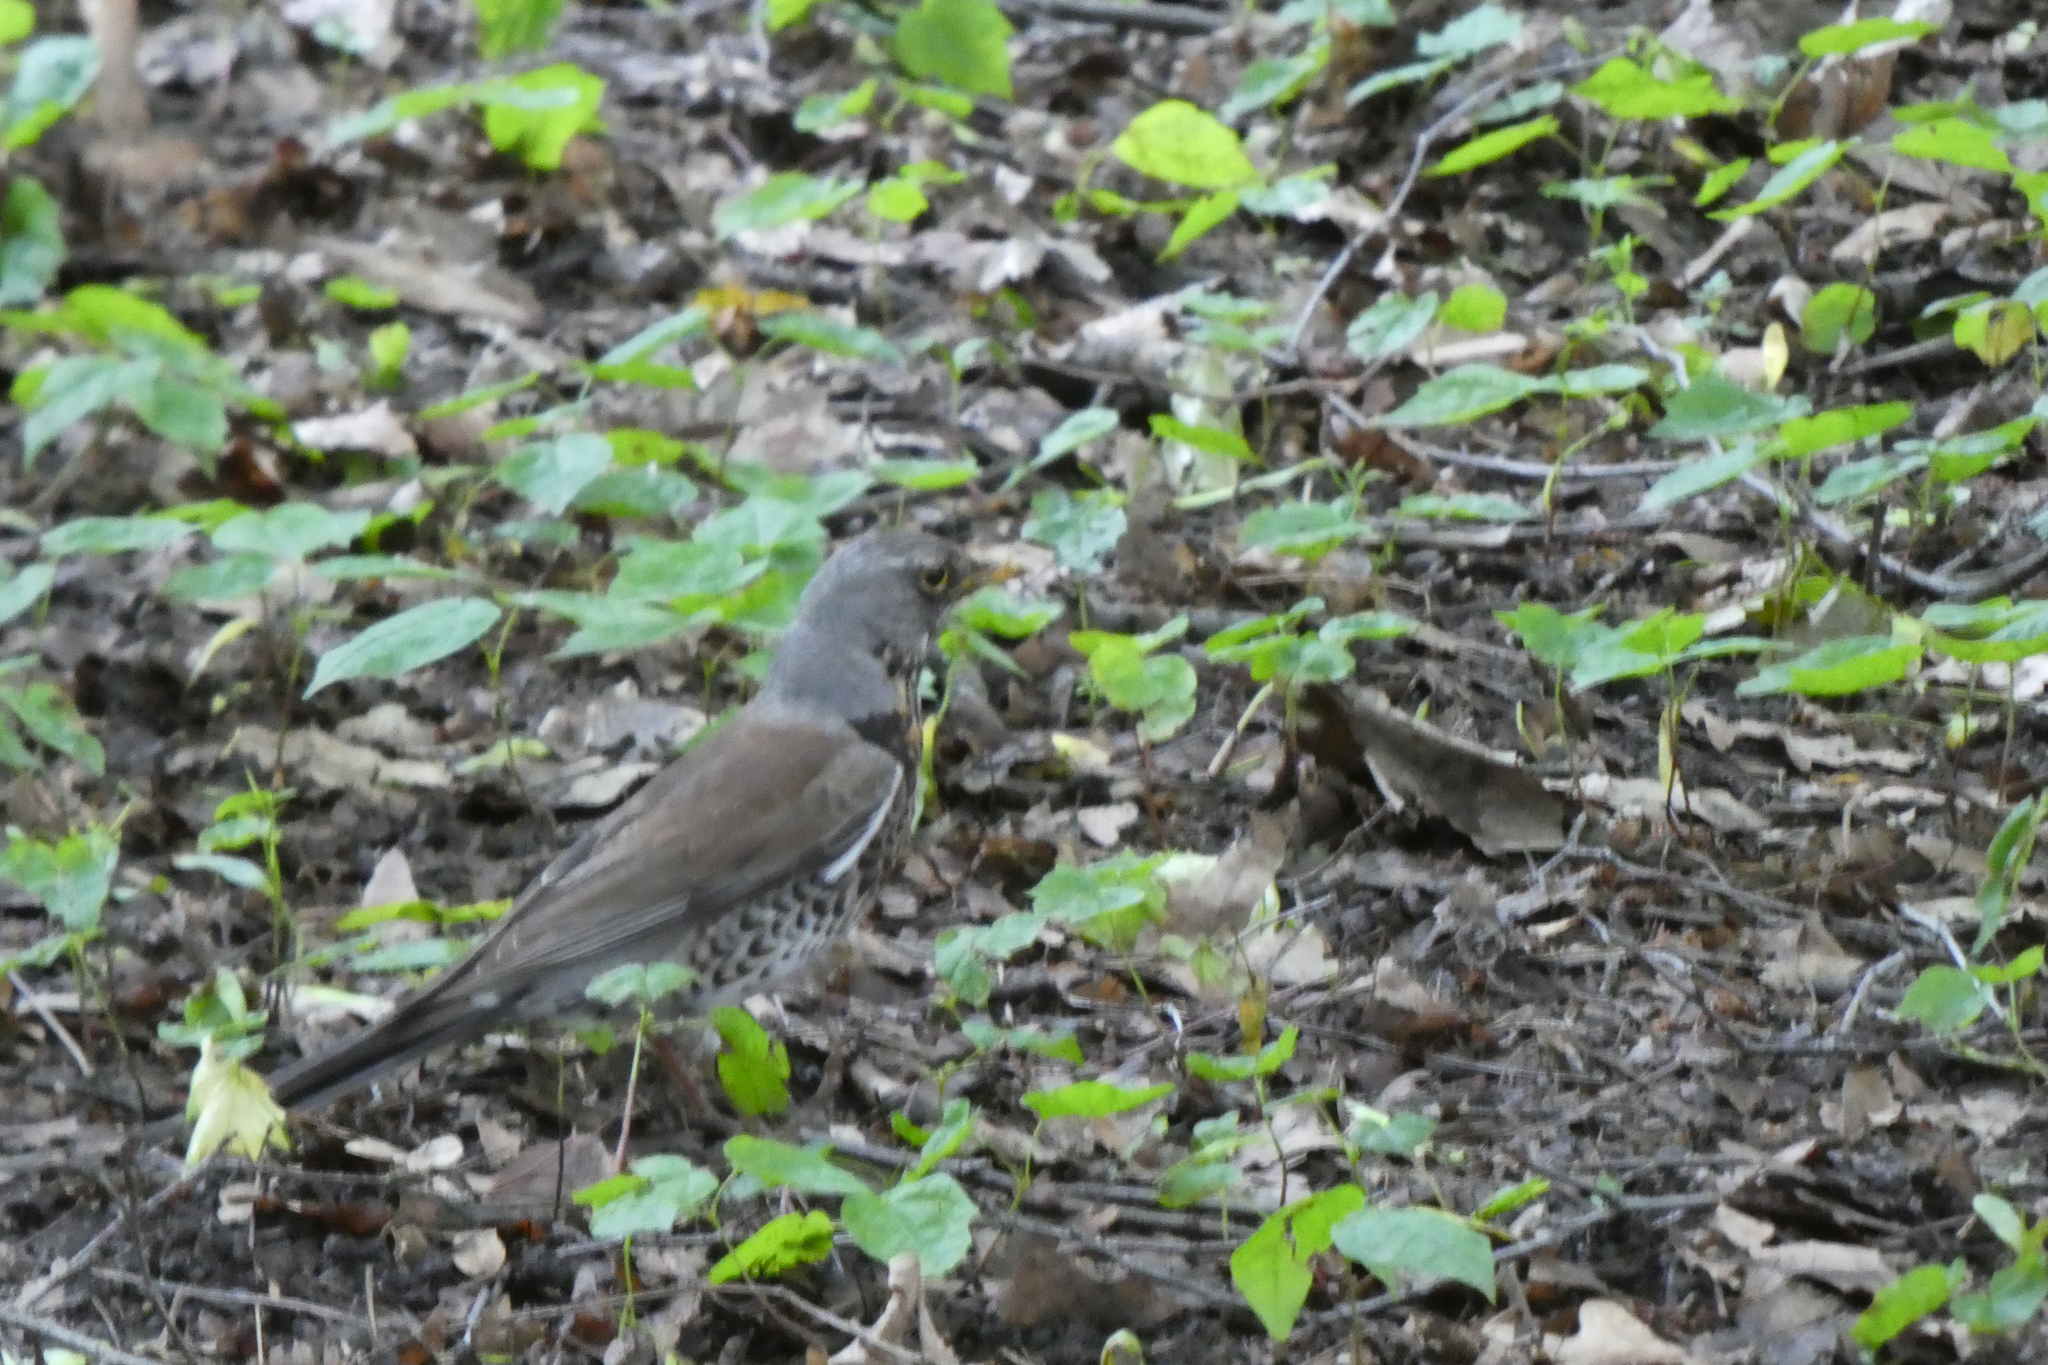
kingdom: Animalia
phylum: Chordata
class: Aves
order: Passeriformes
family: Turdidae
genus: Turdus
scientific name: Turdus pilaris
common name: Fieldfare
